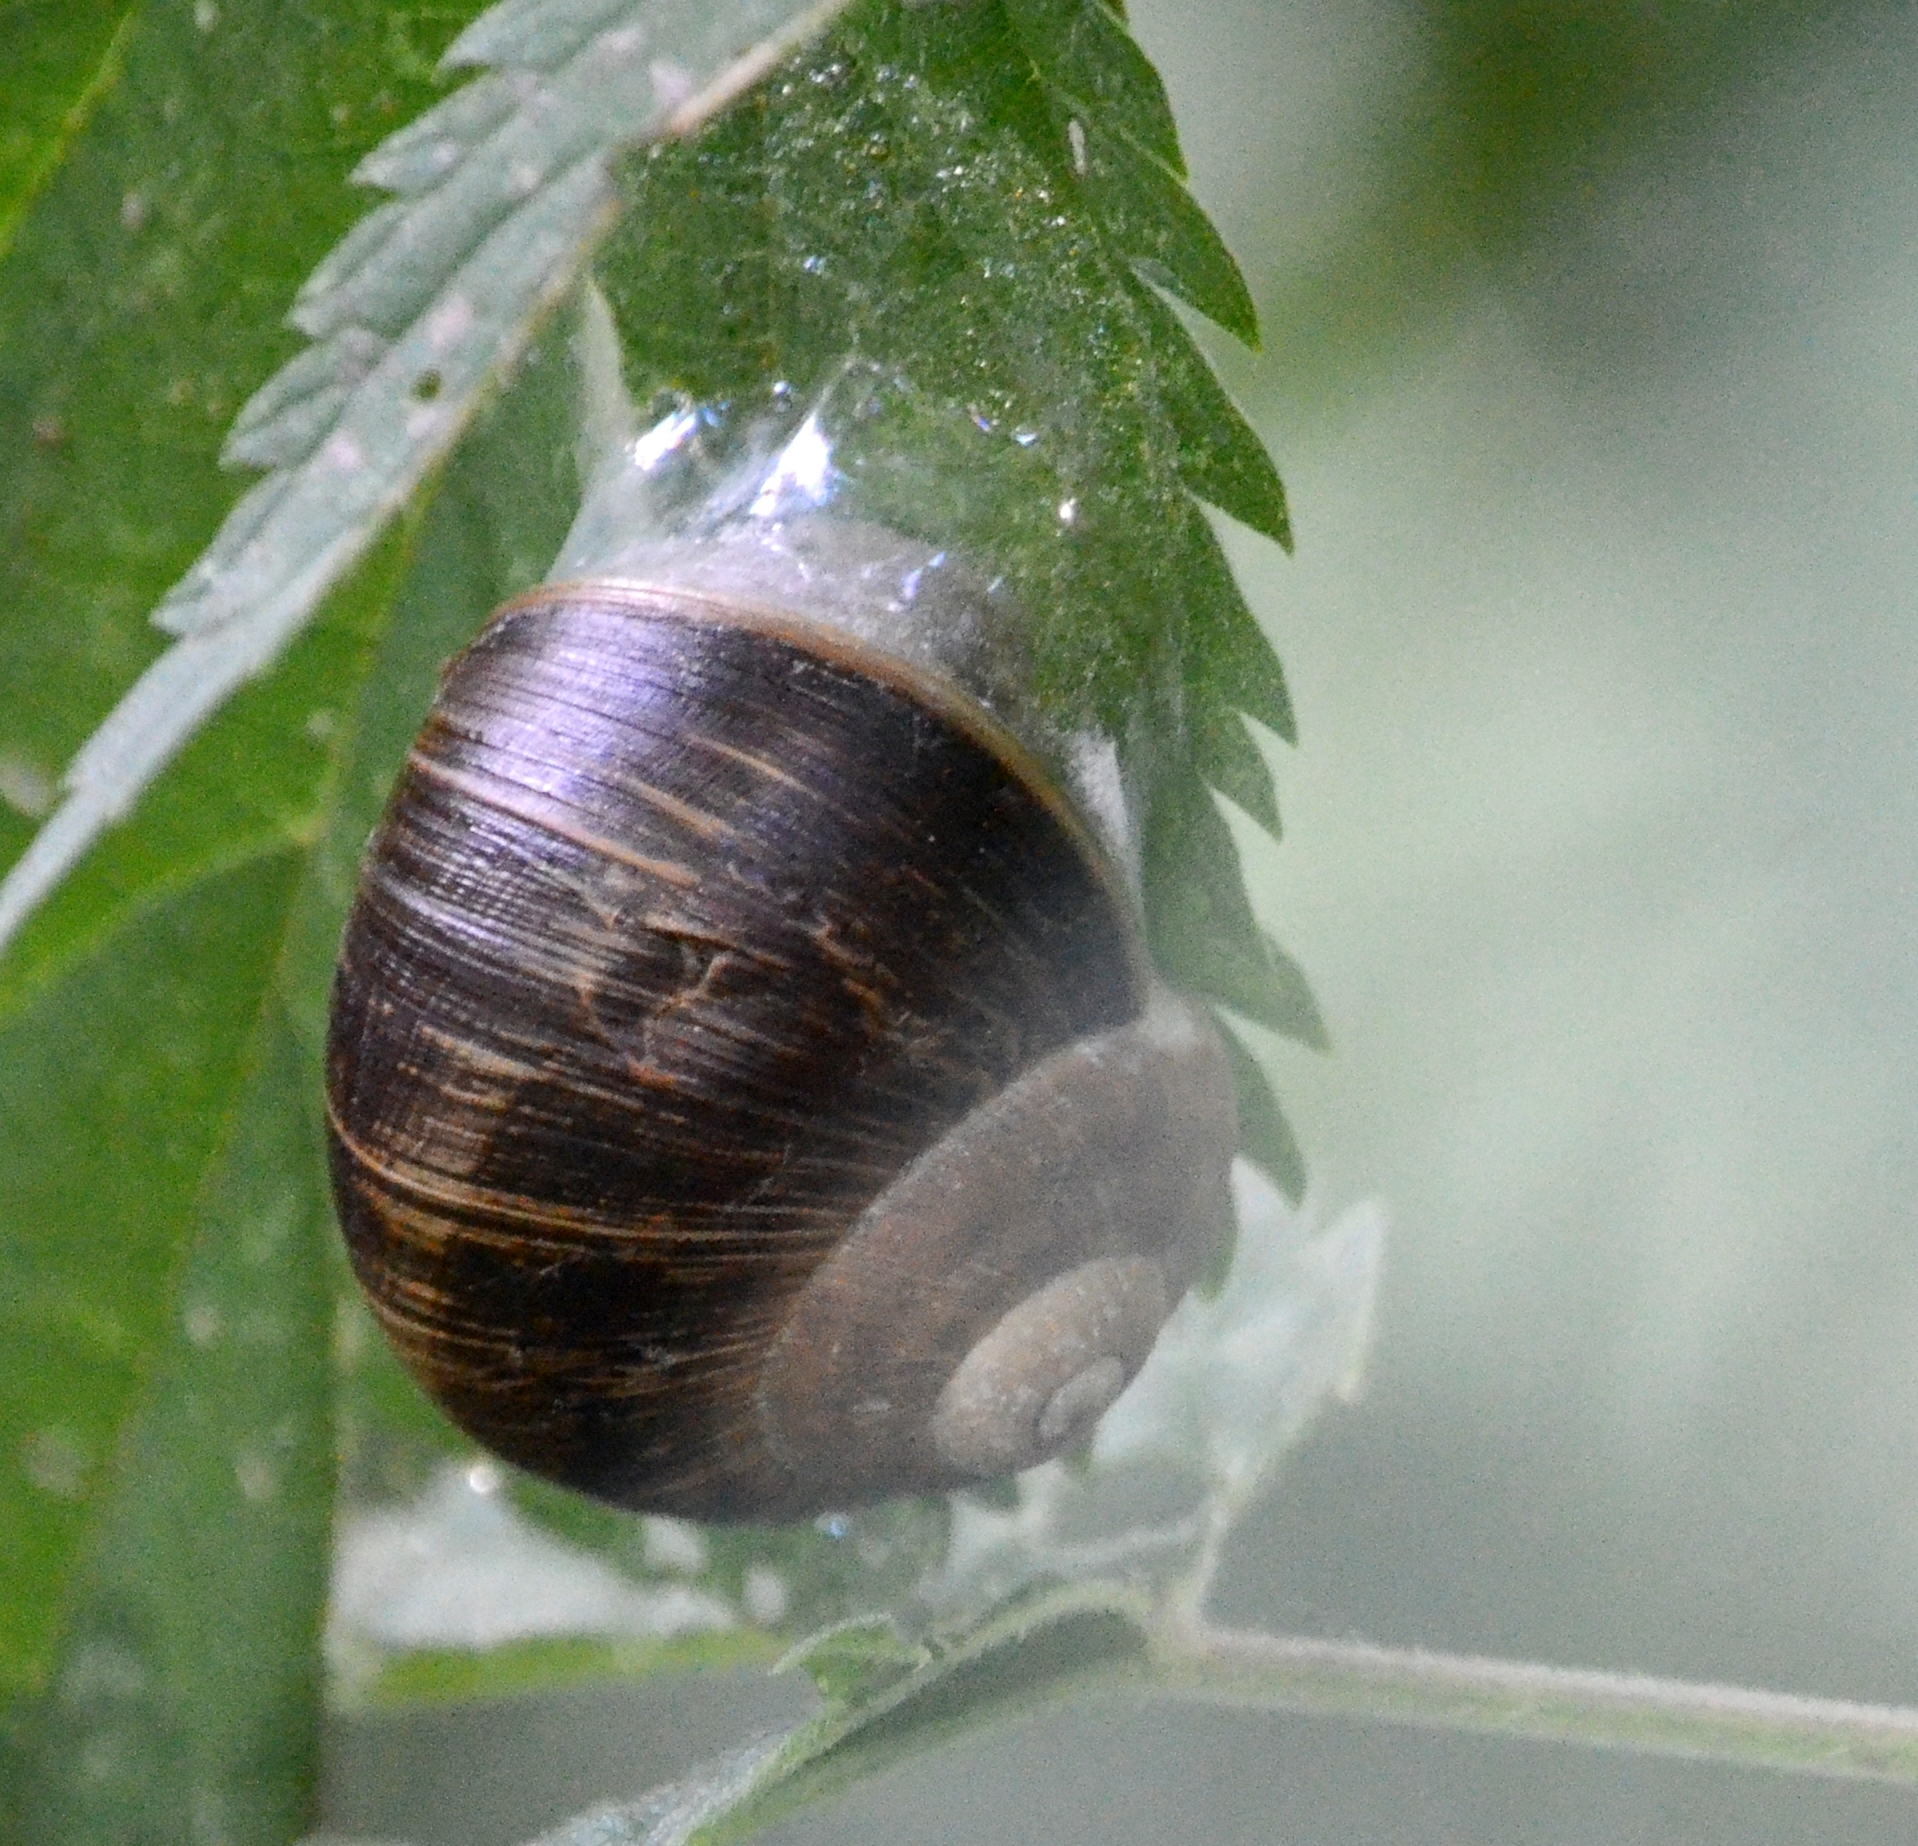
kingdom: Animalia
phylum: Mollusca
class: Gastropoda
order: Stylommatophora
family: Helicidae
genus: Helix
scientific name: Helix pomatia
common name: Roman snail
